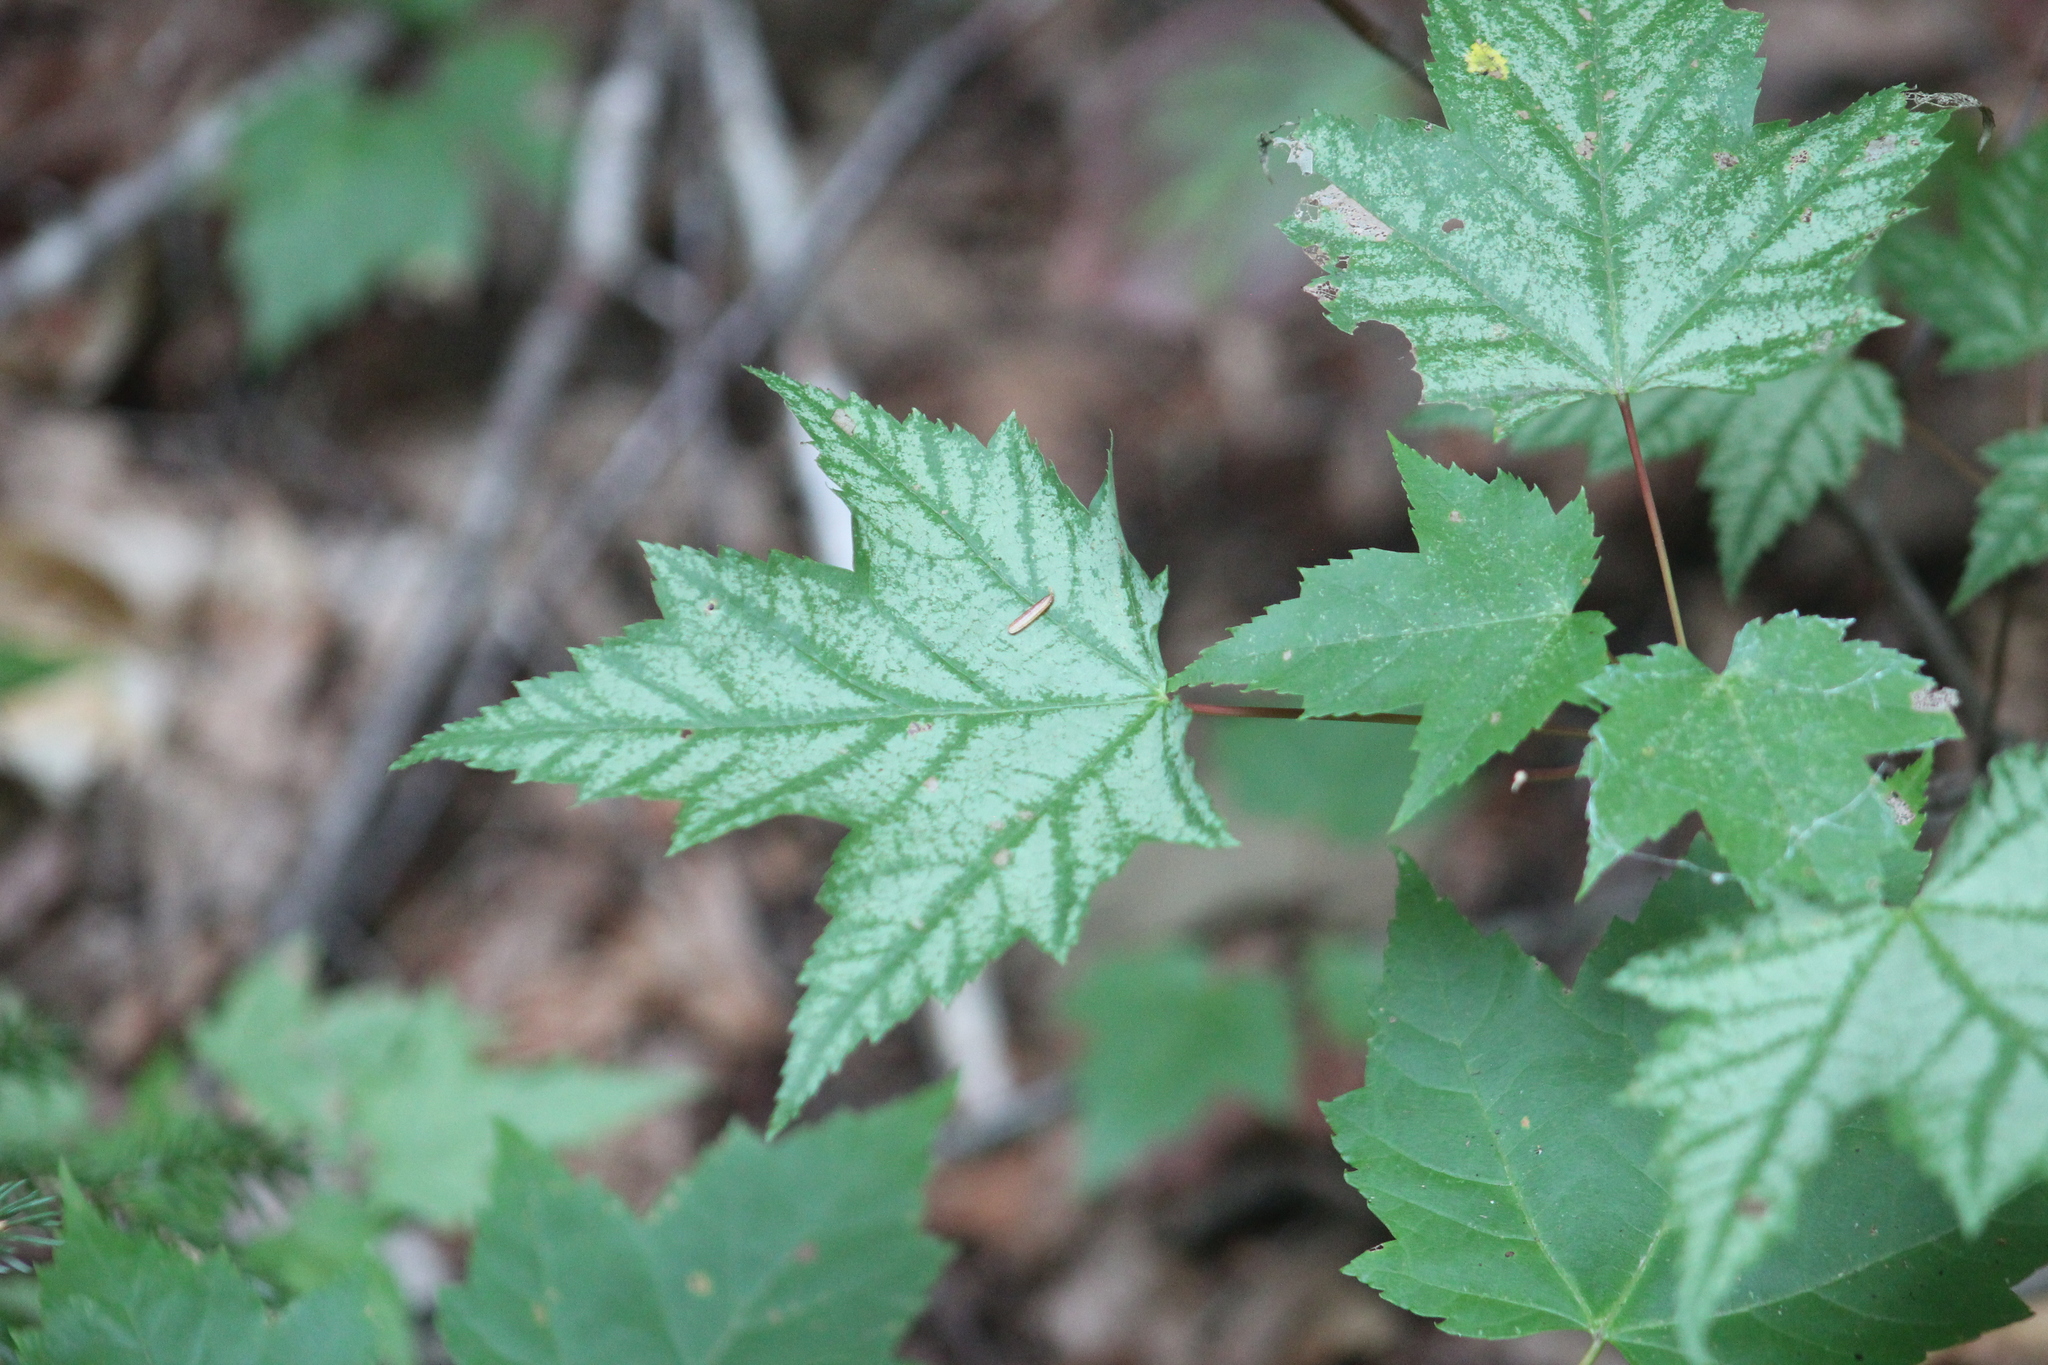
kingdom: Plantae
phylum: Tracheophyta
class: Magnoliopsida
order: Sapindales
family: Sapindaceae
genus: Acer
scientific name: Acer rubrum
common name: Red maple
